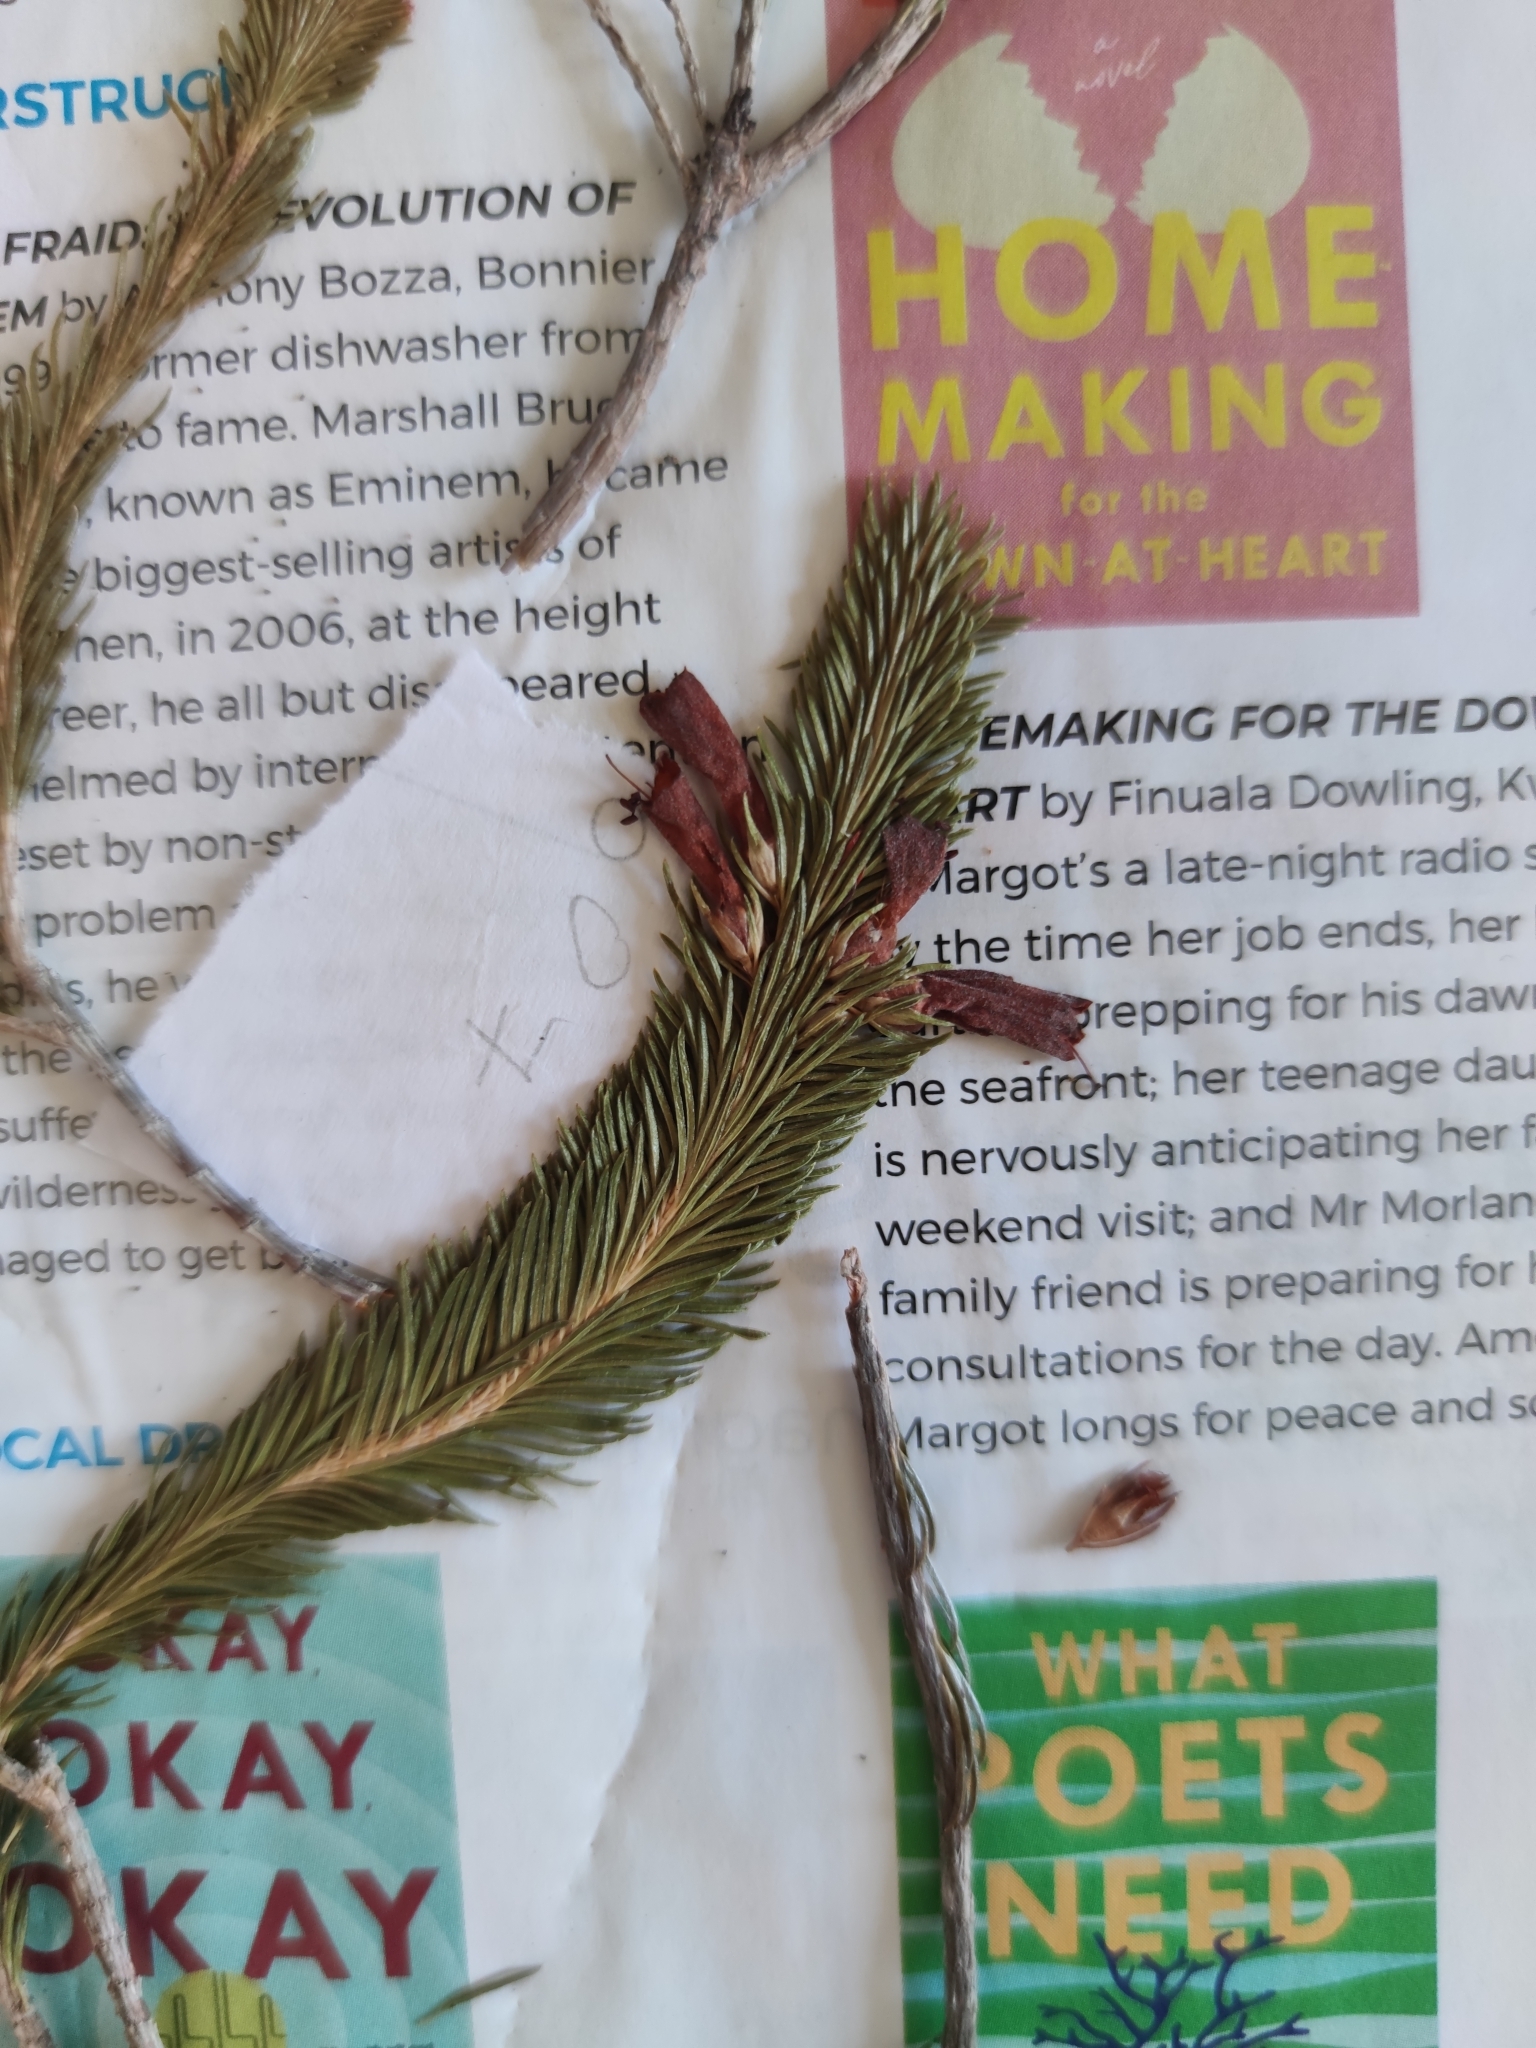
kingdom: Plantae
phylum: Tracheophyta
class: Magnoliopsida
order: Ericales
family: Ericaceae
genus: Erica
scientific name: Erica vestita
